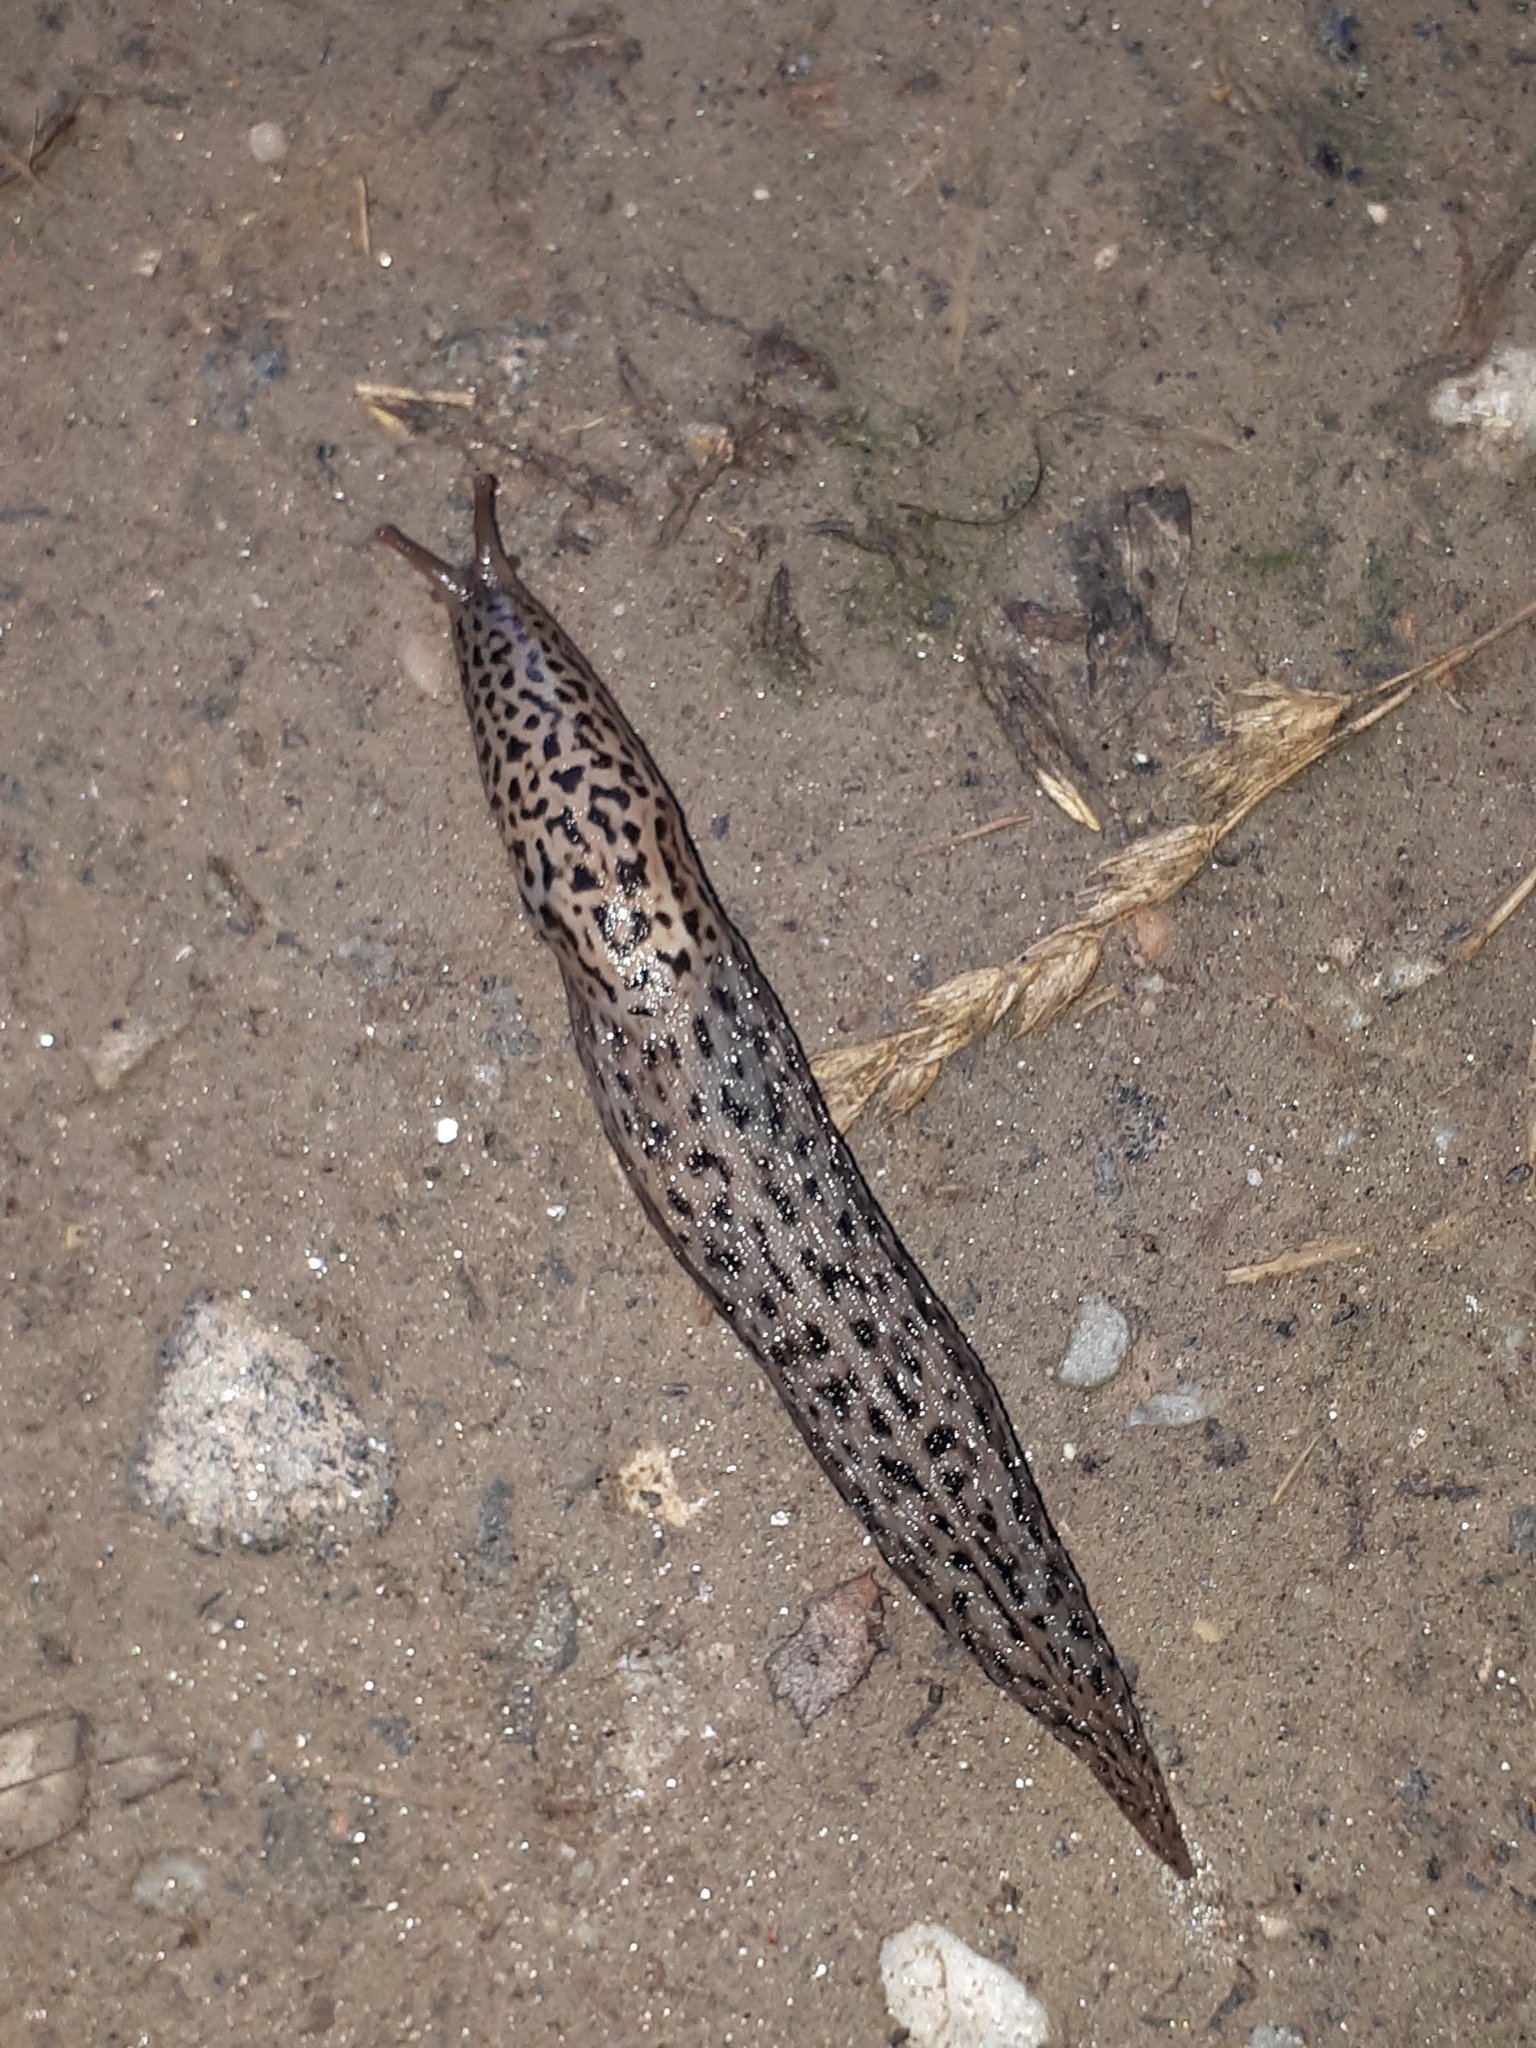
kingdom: Animalia
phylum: Mollusca
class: Gastropoda
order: Stylommatophora
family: Limacidae
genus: Limax
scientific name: Limax maximus
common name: Great grey slug
